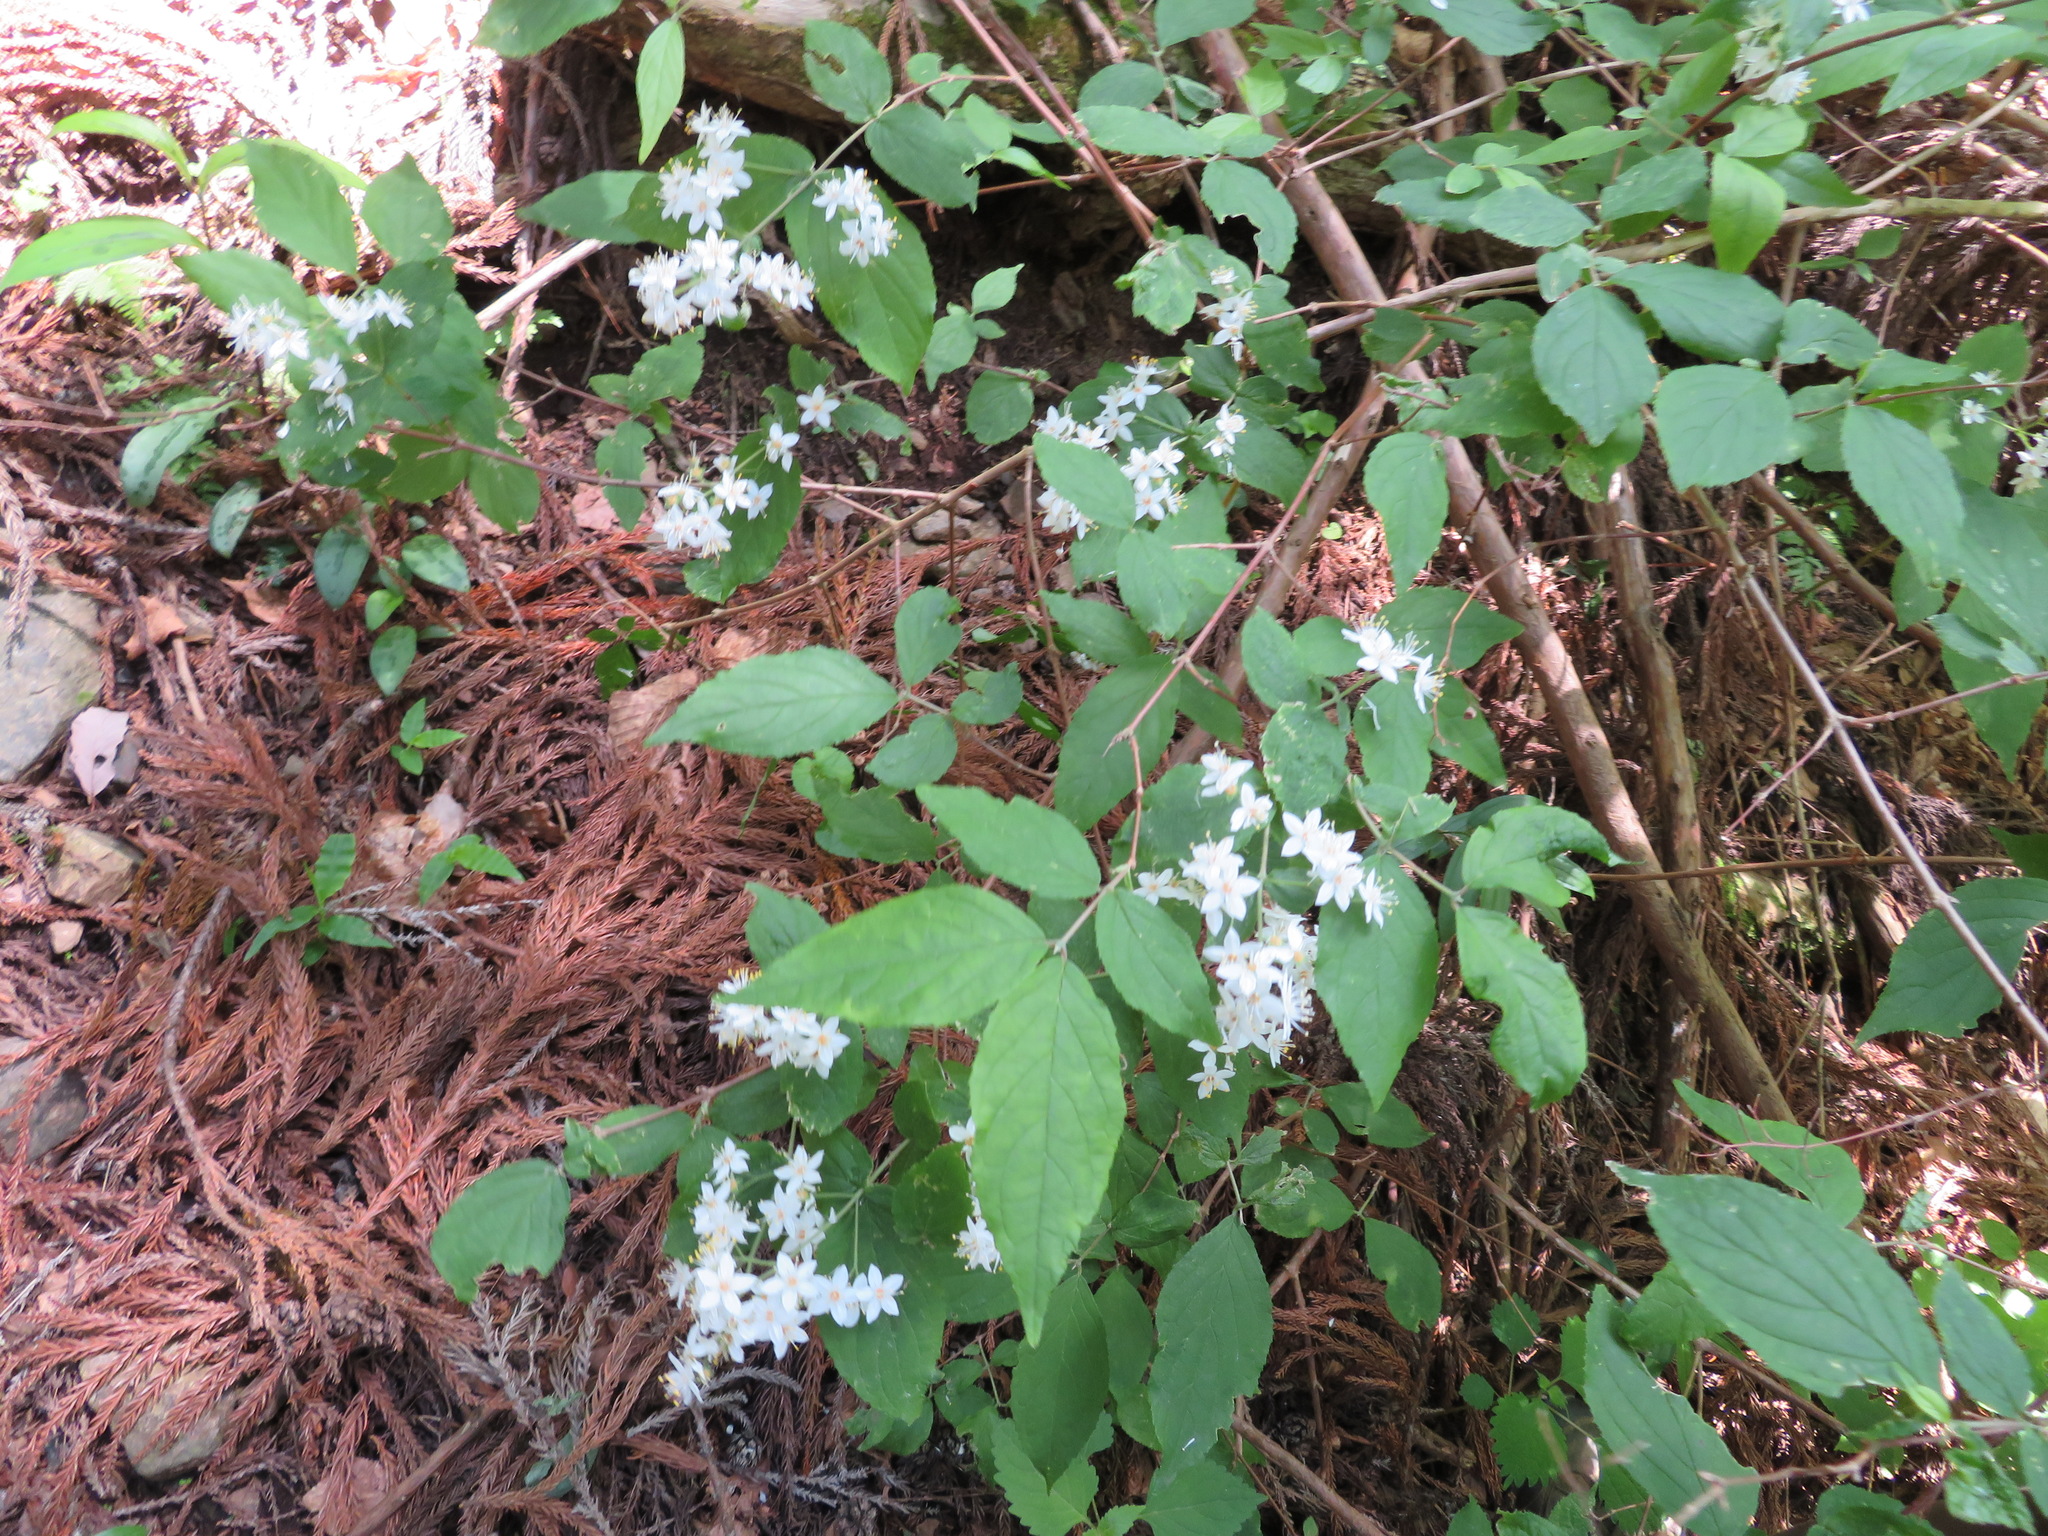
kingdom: Plantae
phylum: Tracheophyta
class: Magnoliopsida
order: Cornales
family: Hydrangeaceae
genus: Deutzia
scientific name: Deutzia scabra
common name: Deutzia
